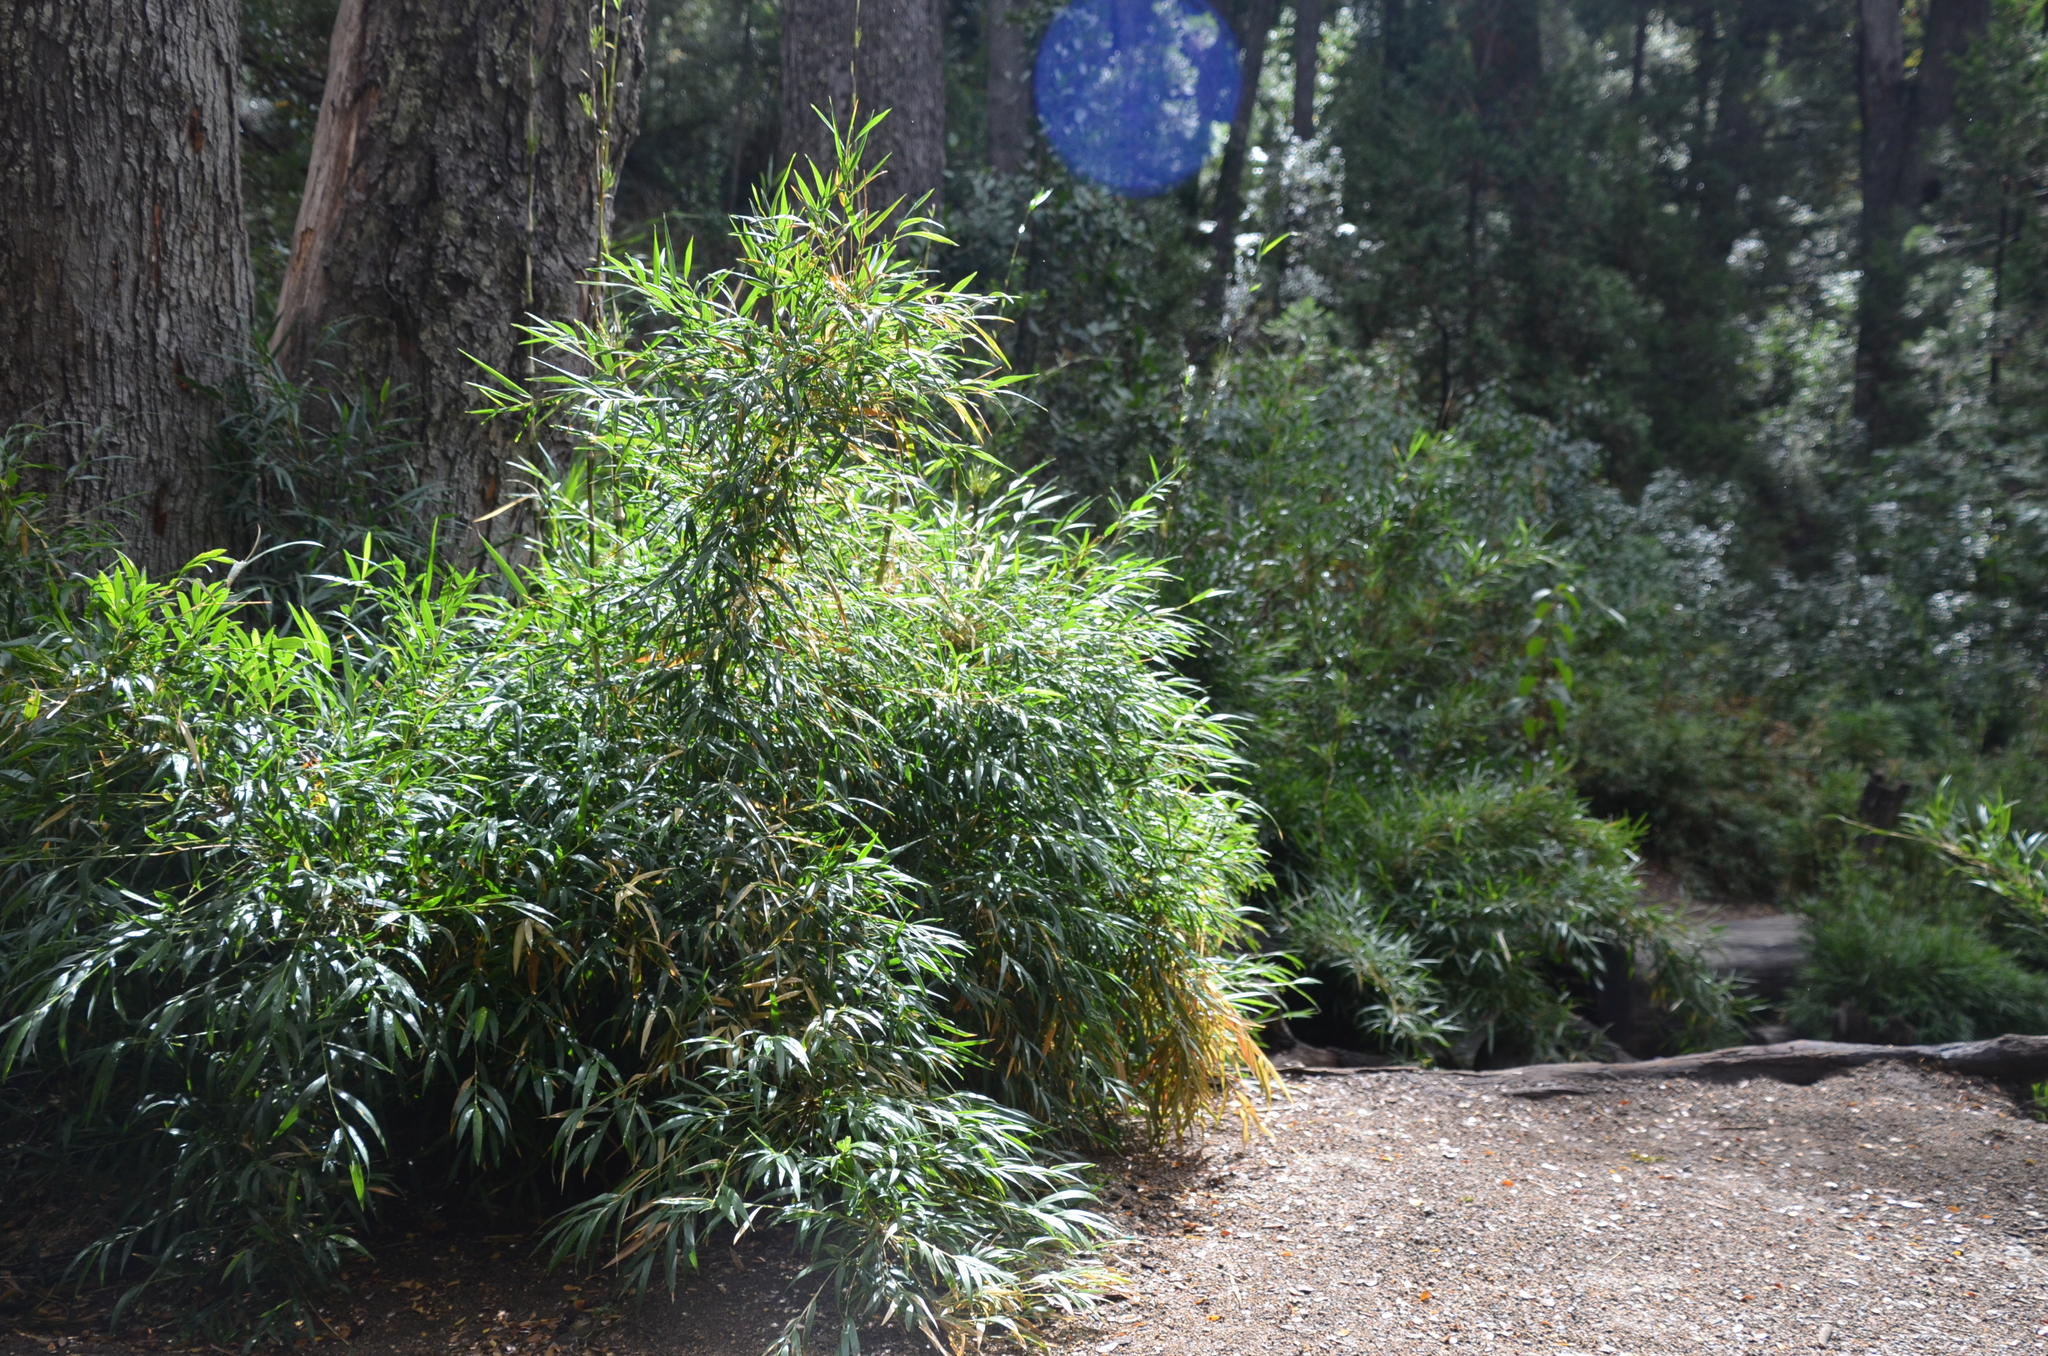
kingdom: Plantae
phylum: Tracheophyta
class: Liliopsida
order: Poales
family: Poaceae
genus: Chusquea
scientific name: Chusquea culeou
